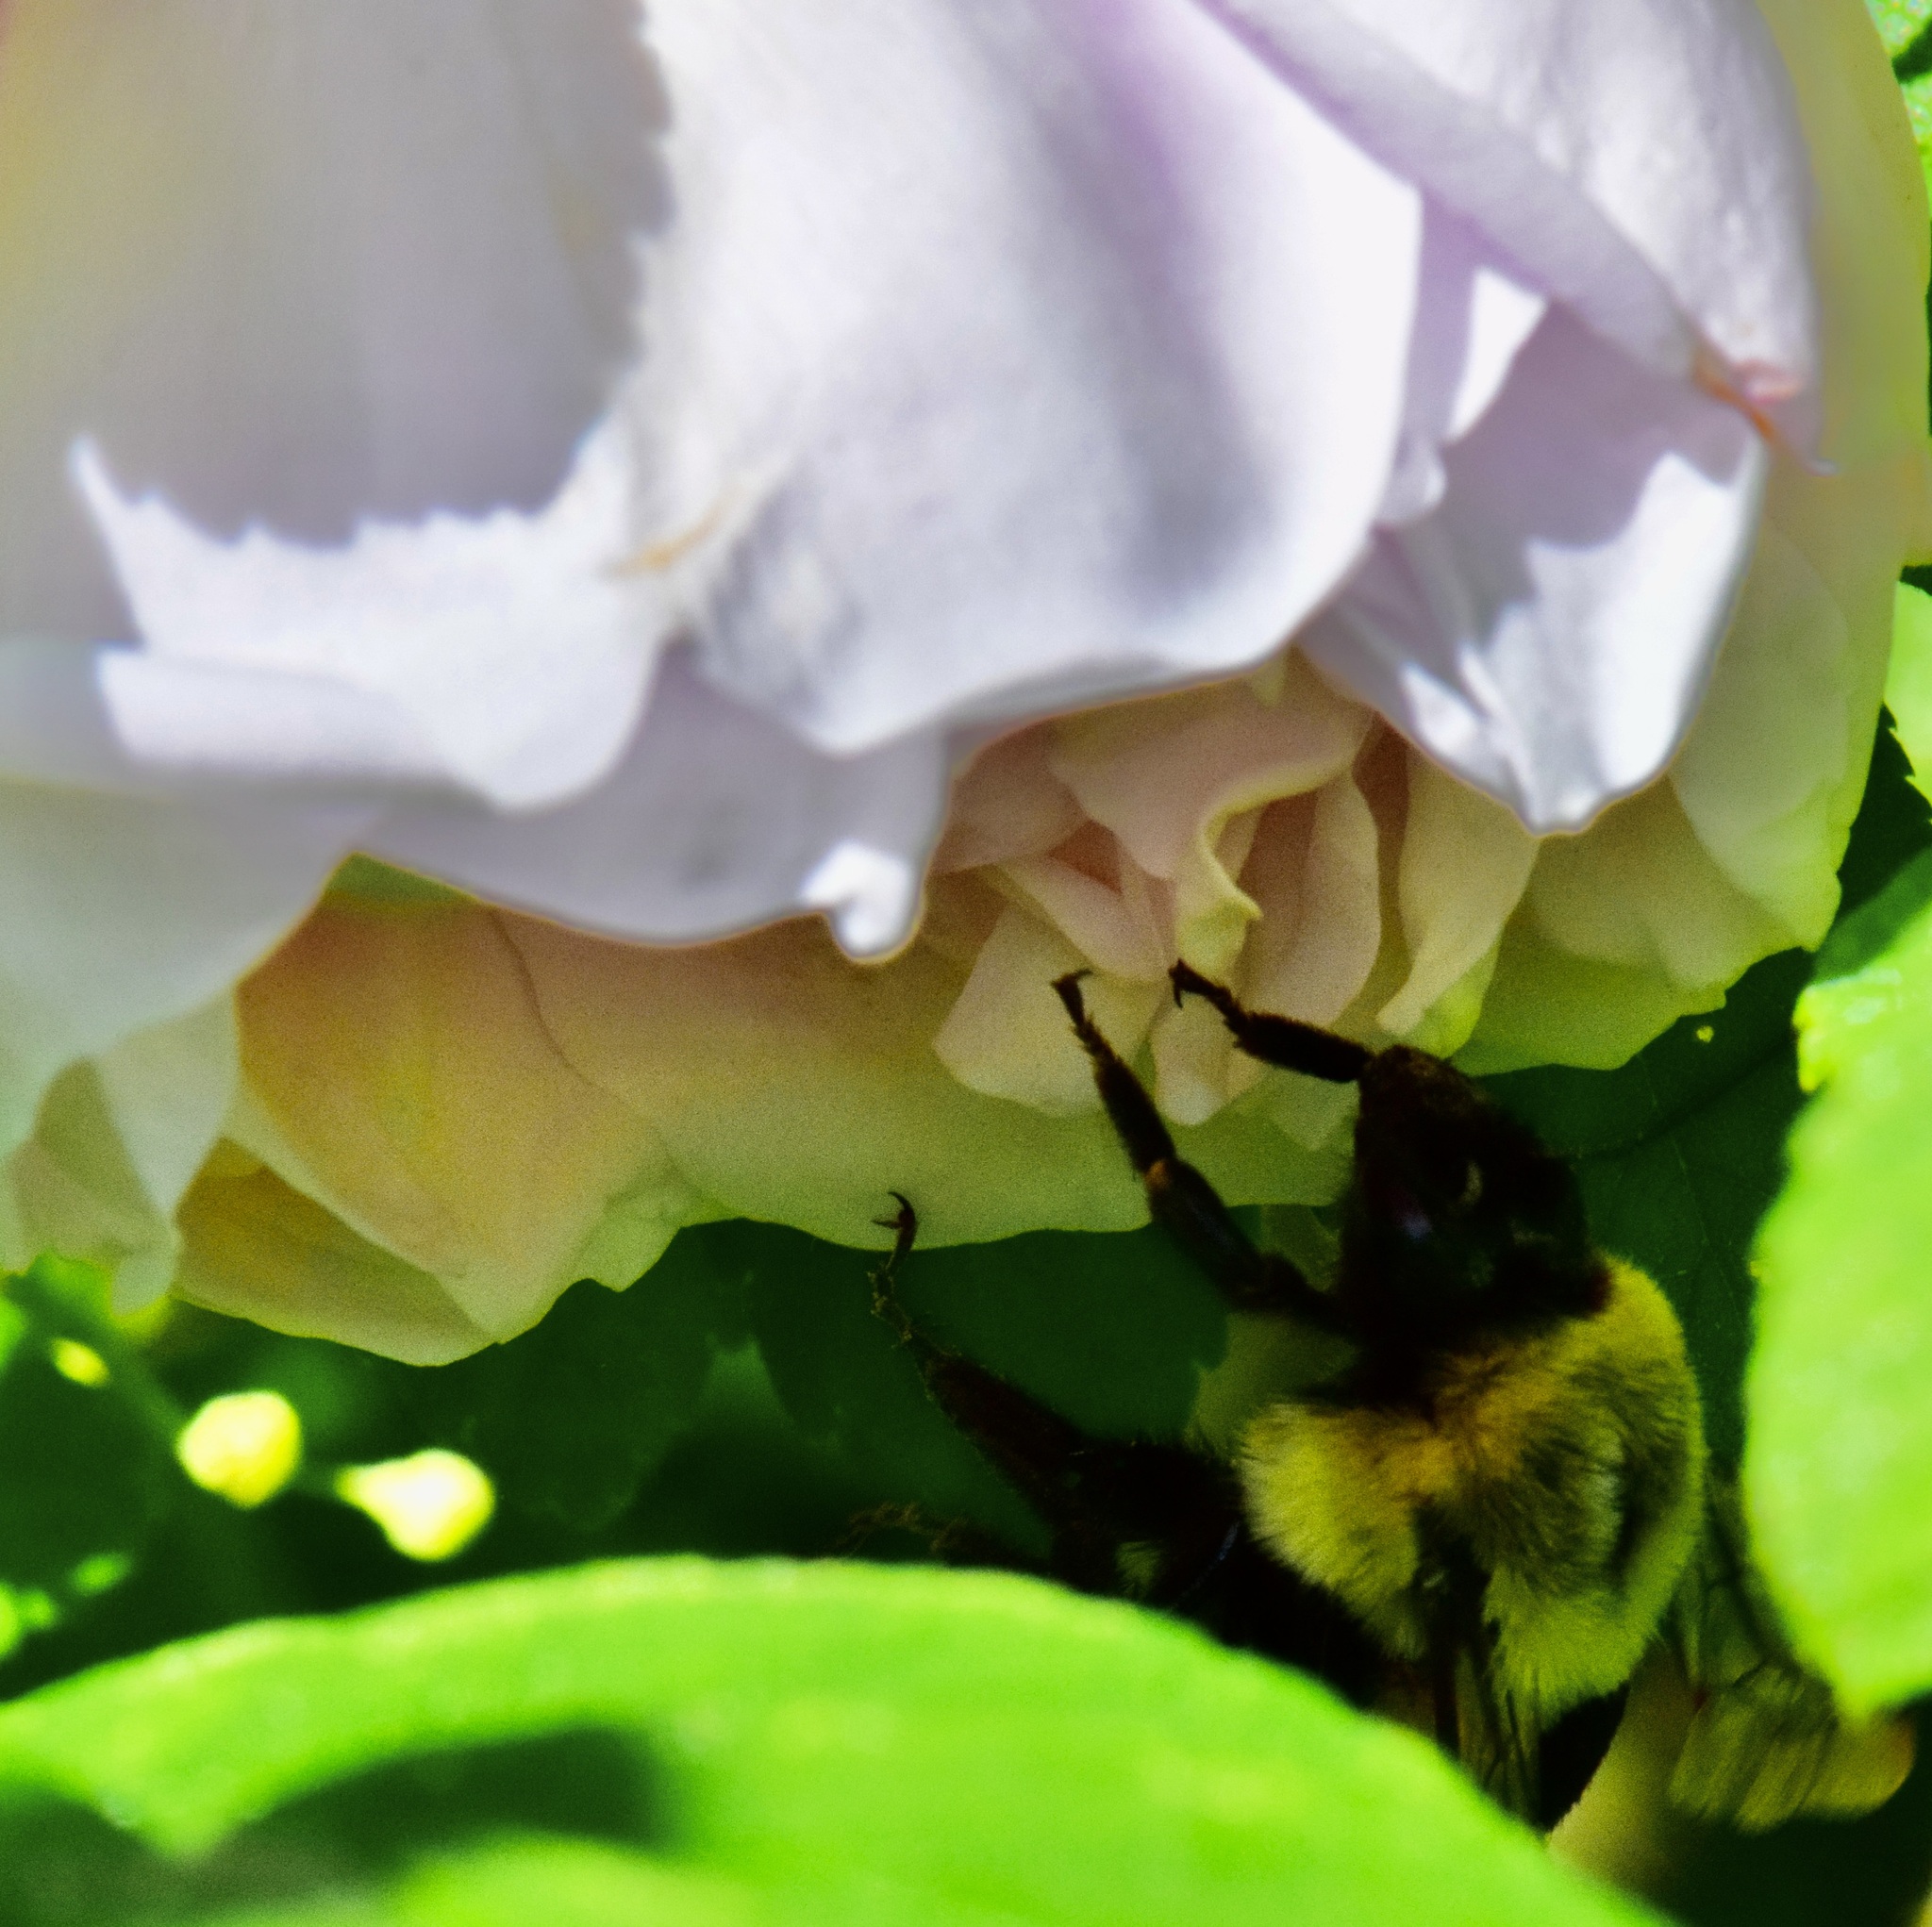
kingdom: Animalia
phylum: Arthropoda
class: Insecta
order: Hymenoptera
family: Apidae
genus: Bombus
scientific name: Bombus impatiens
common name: Common eastern bumble bee
